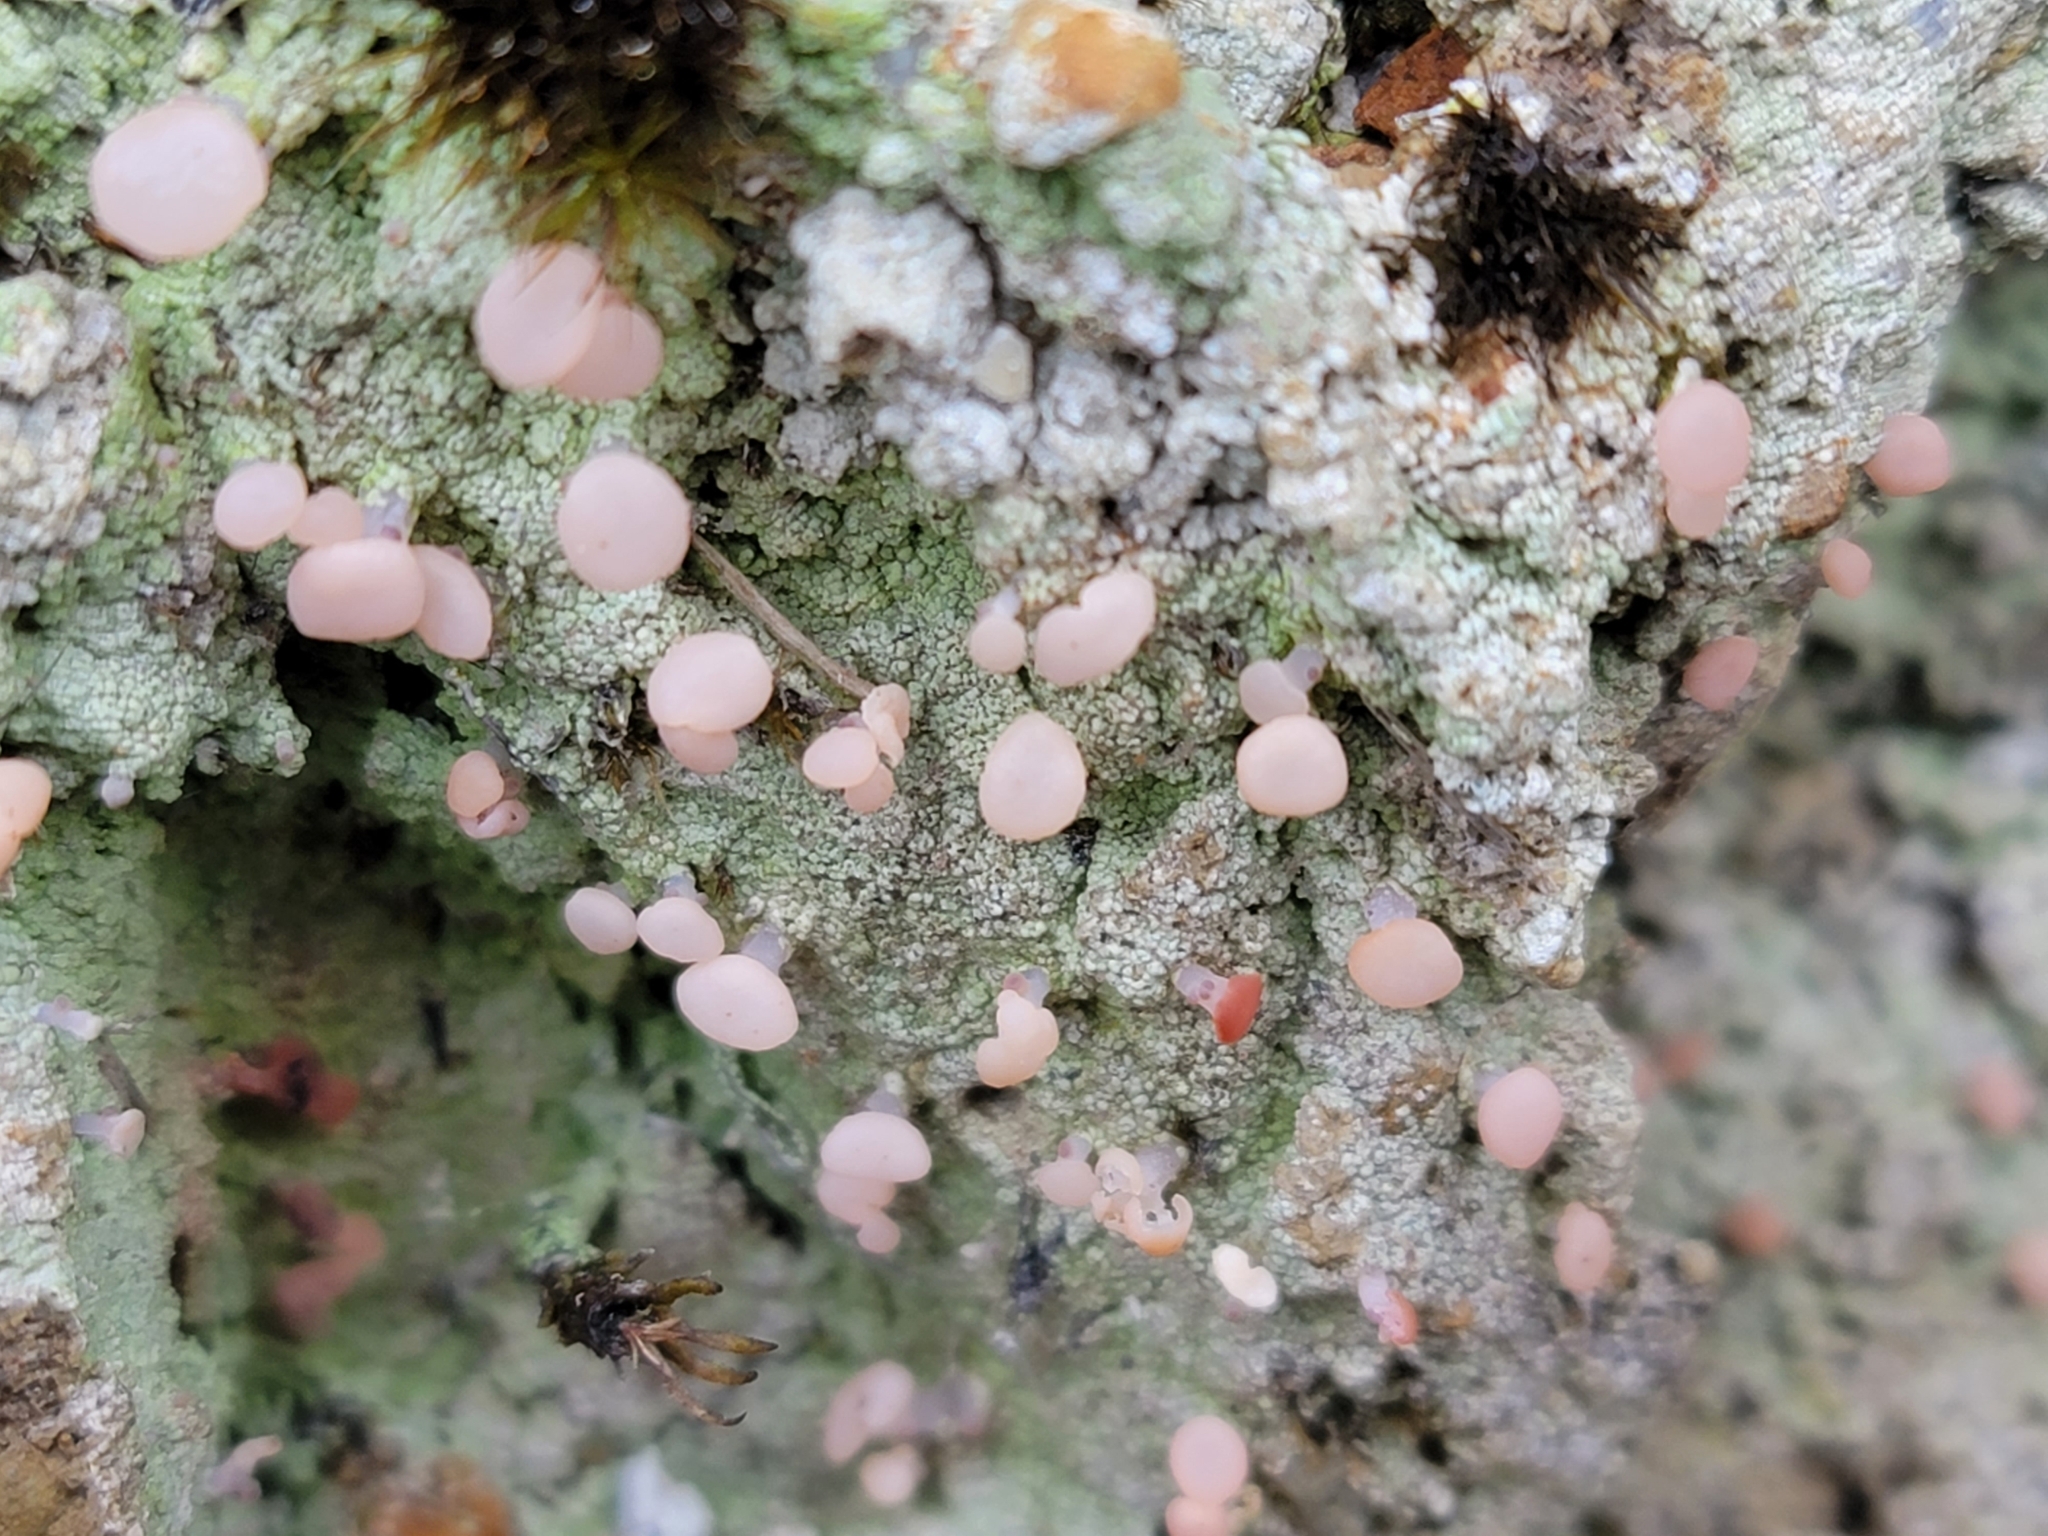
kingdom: Fungi
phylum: Ascomycota
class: Lecanoromycetes
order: Baeomycetales
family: Baeomycetaceae
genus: Baeomyces
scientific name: Baeomyces heteromorphus
